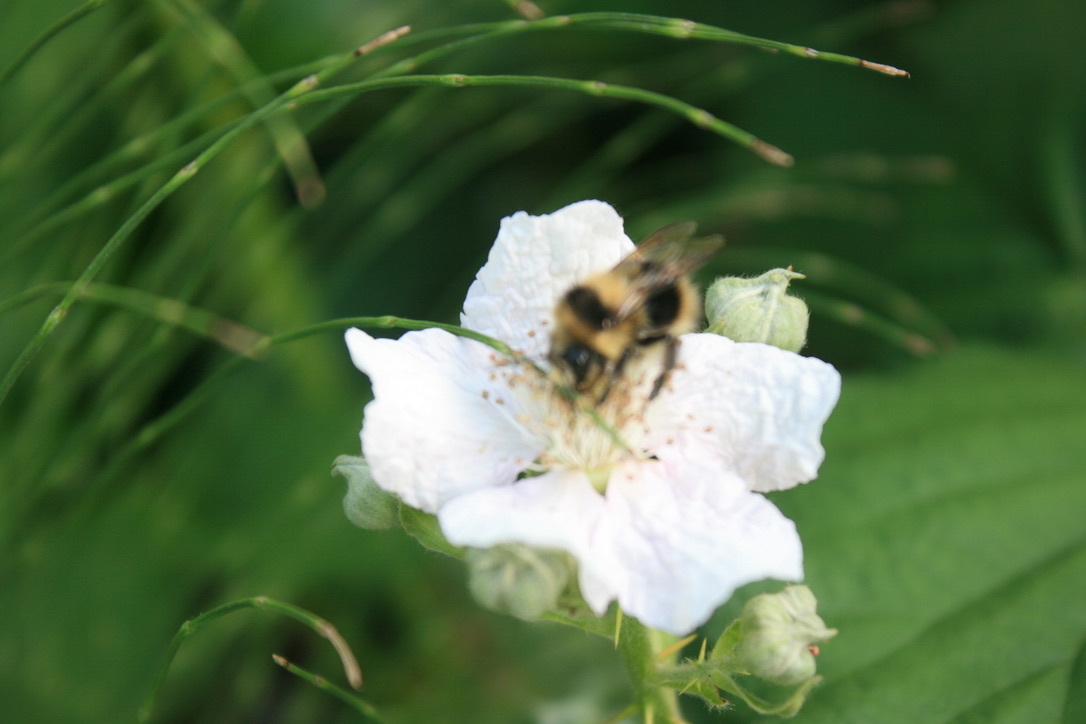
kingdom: Animalia
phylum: Arthropoda
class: Insecta
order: Hymenoptera
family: Apidae
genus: Bombus
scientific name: Bombus melanopygus
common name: Black tail bumble bee
